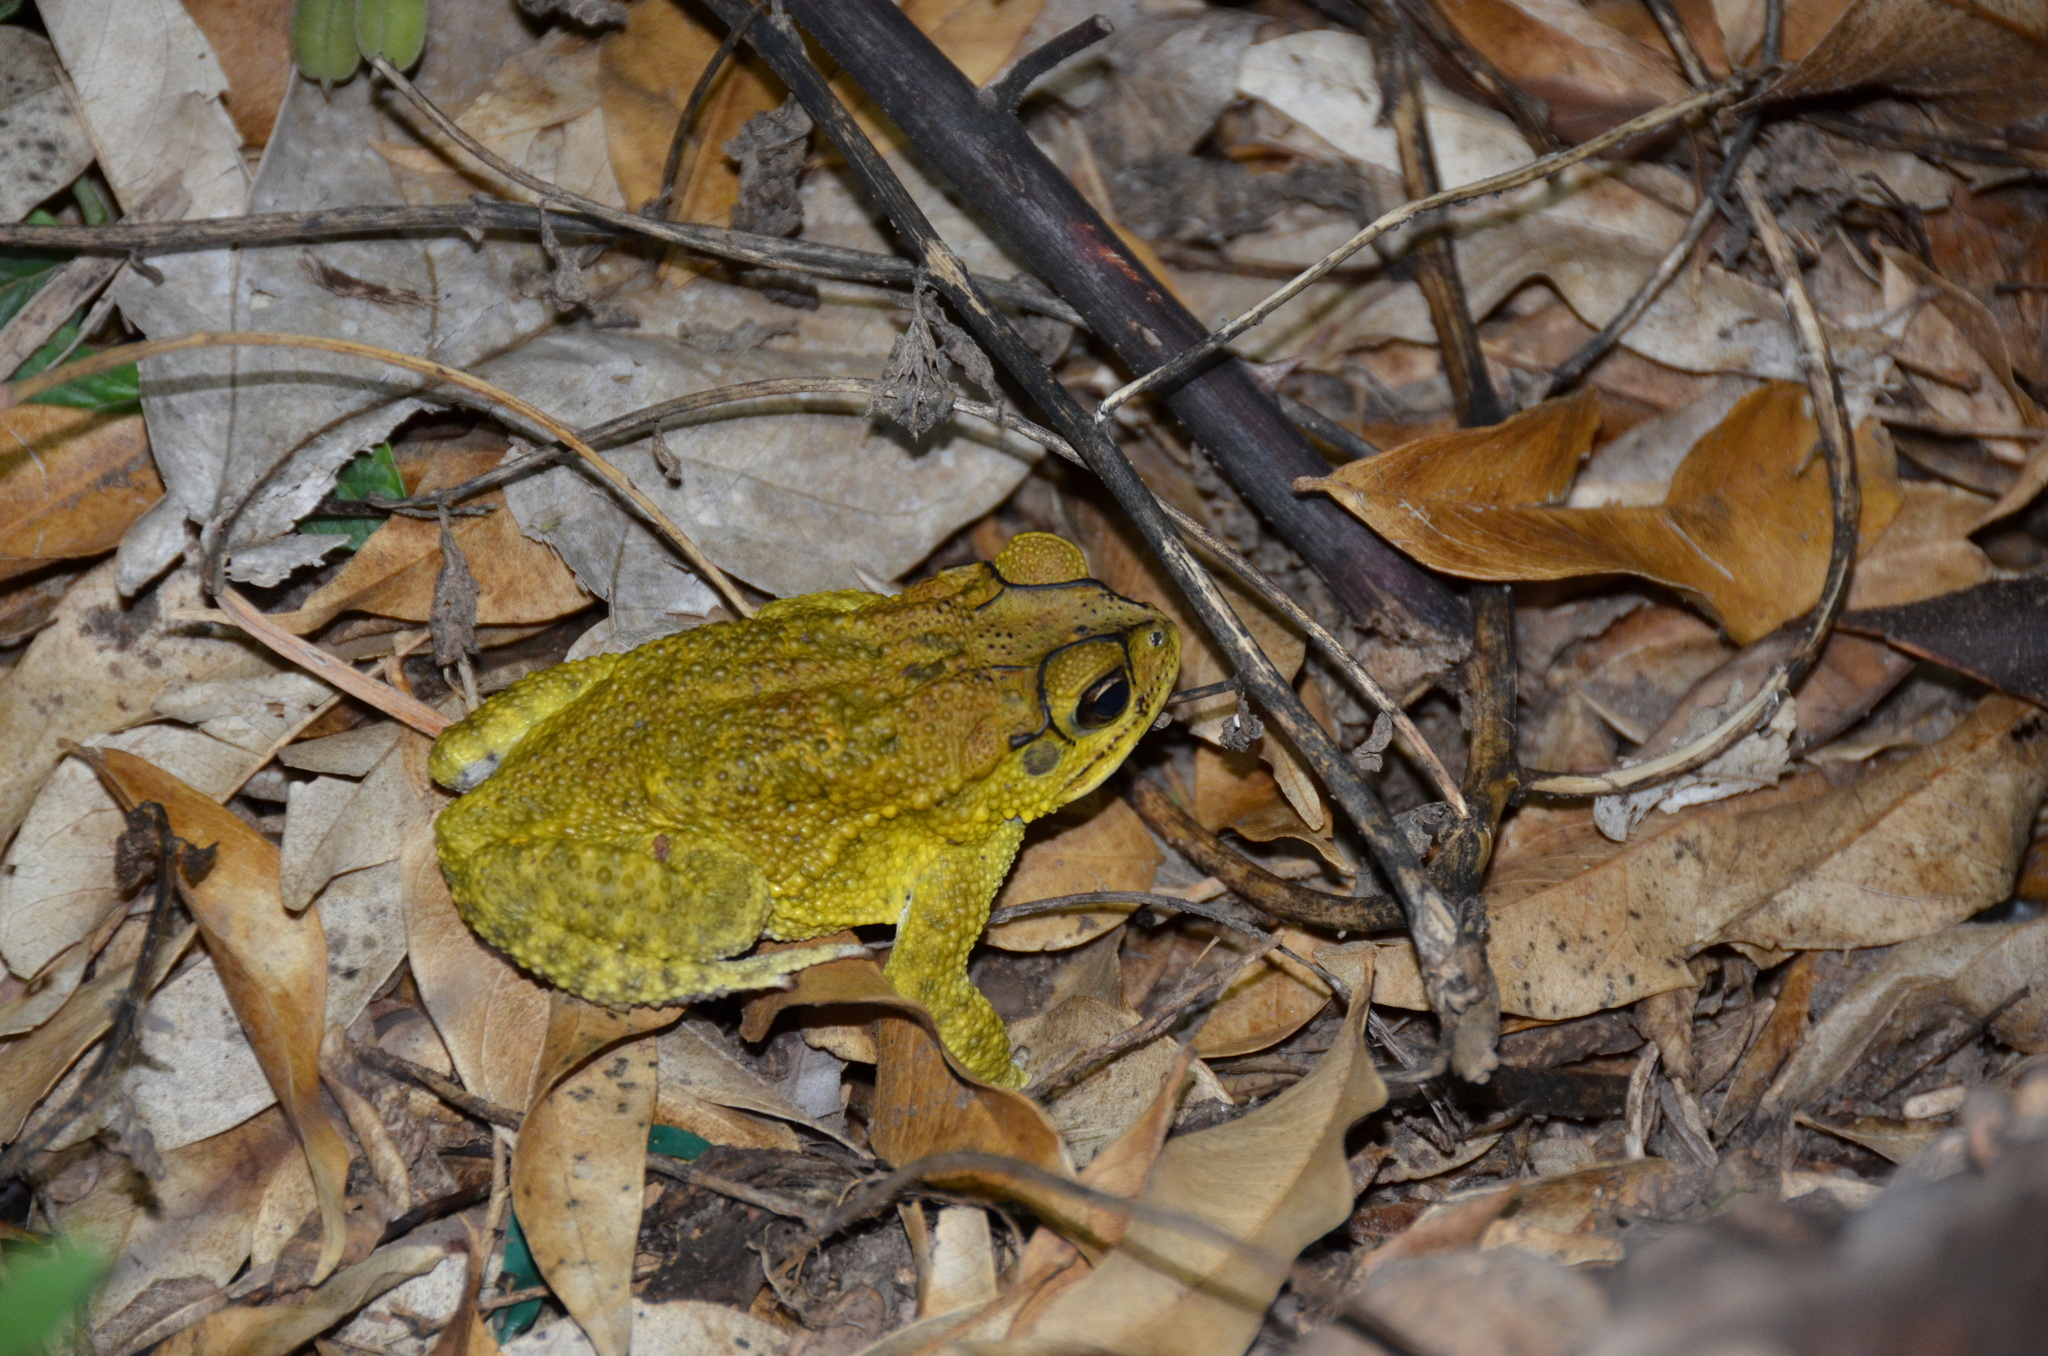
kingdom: Animalia
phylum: Chordata
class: Amphibia
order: Anura
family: Bufonidae
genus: Incilius
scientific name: Incilius luetkenii
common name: Yellow toad
